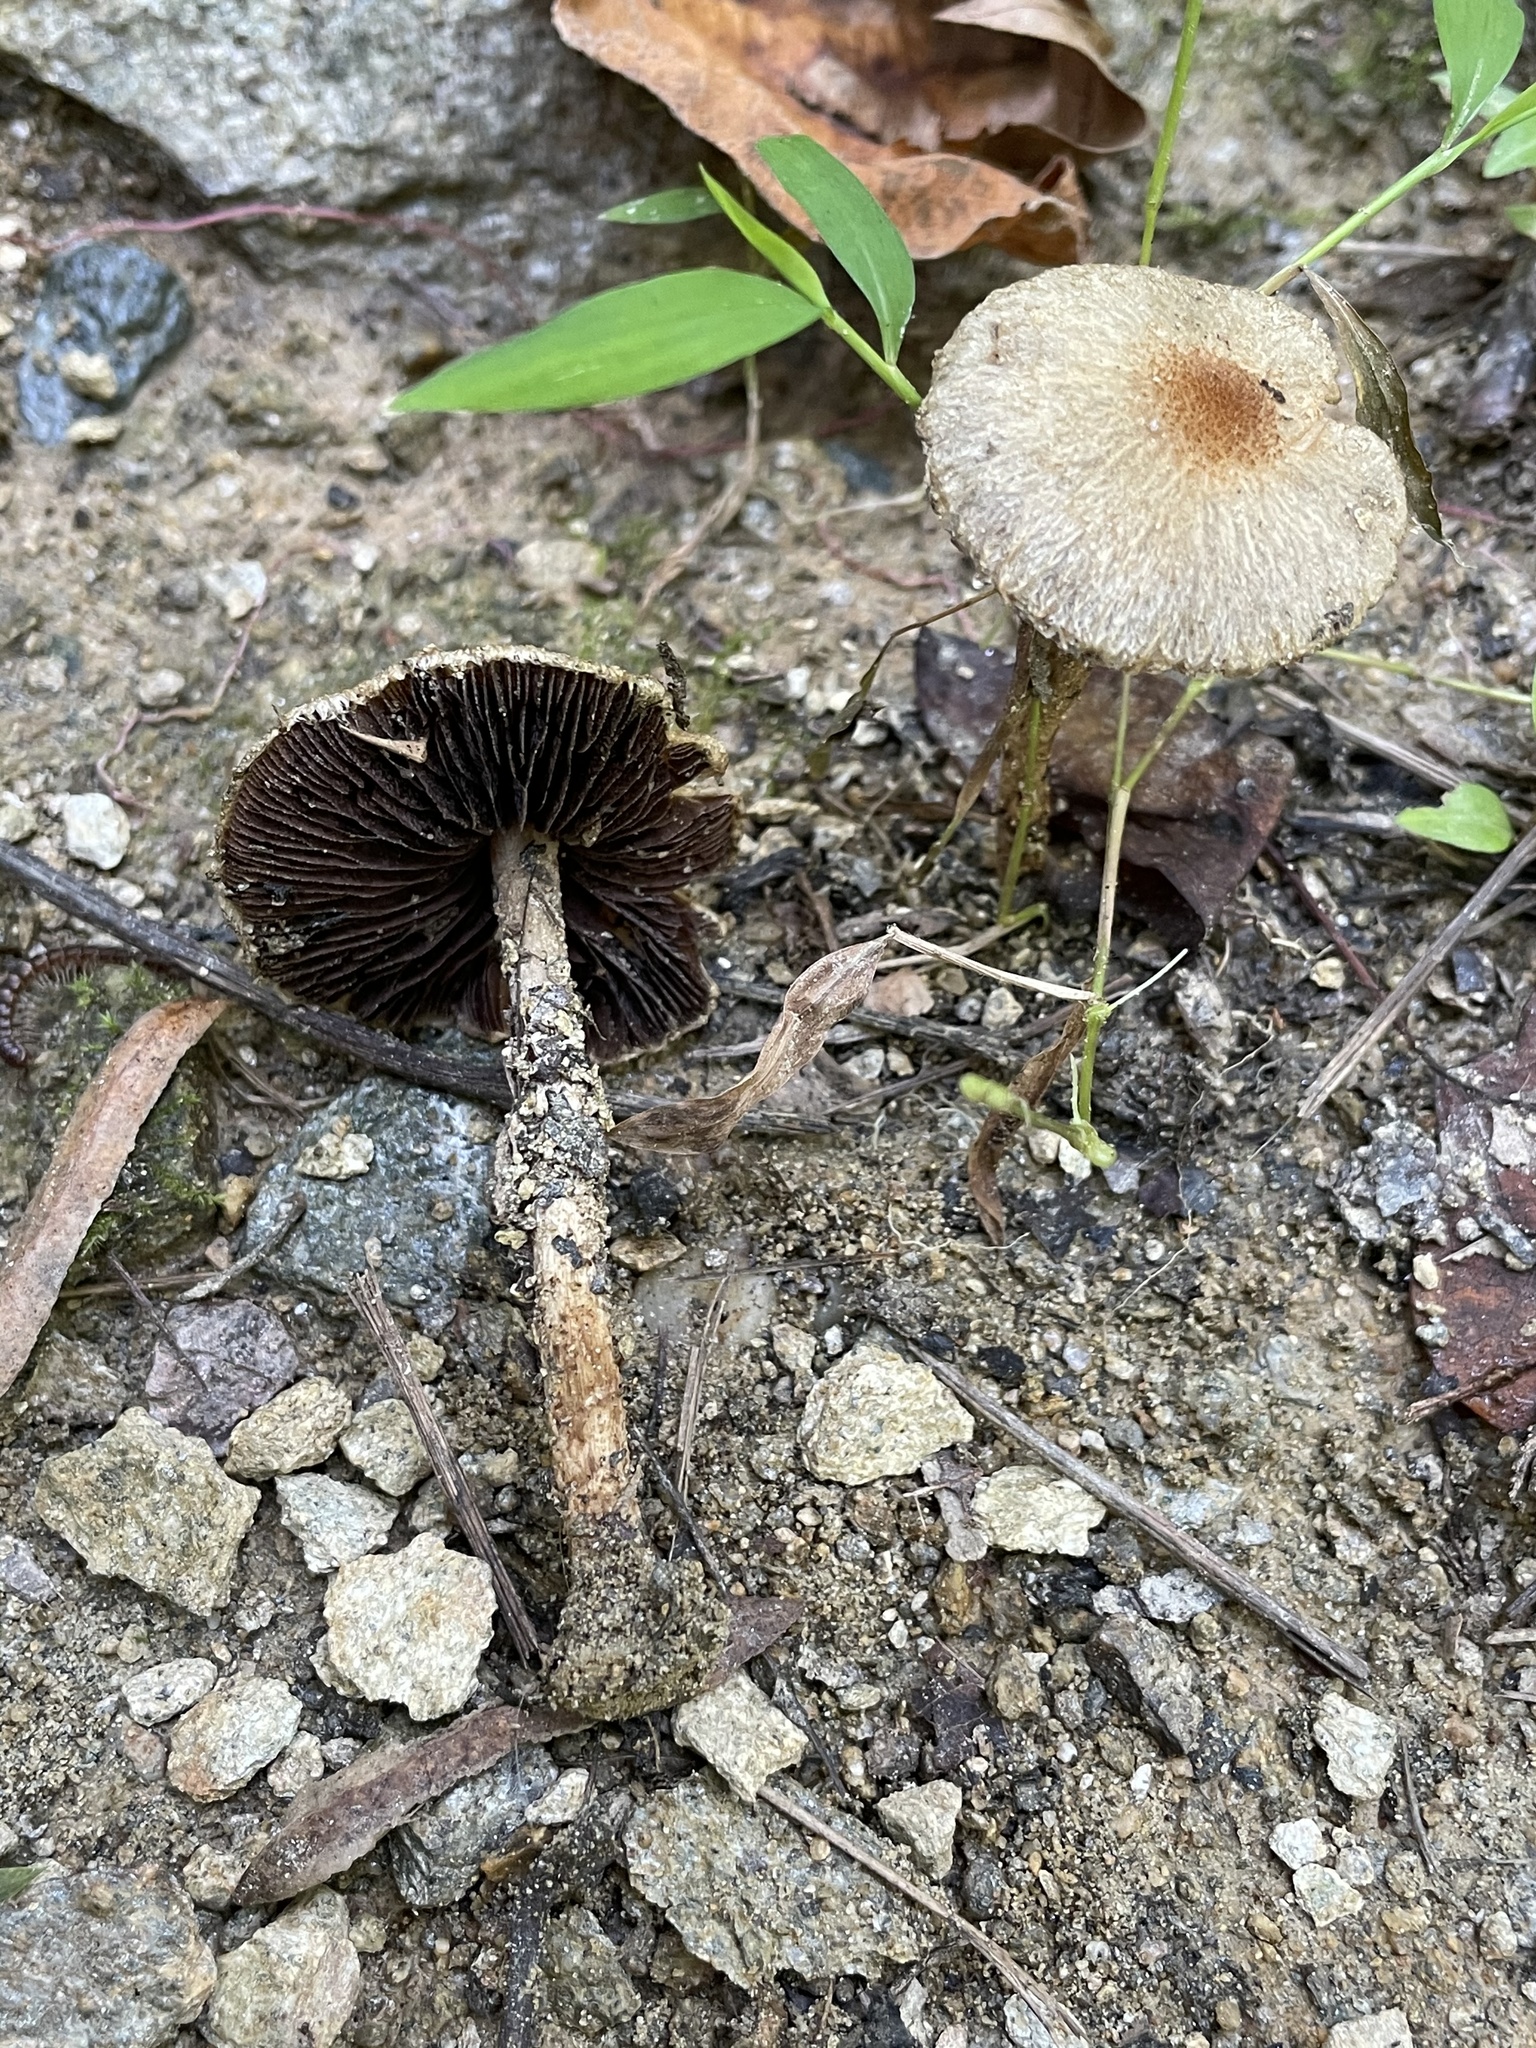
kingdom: Fungi
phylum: Basidiomycota
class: Agaricomycetes
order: Agaricales
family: Psathyrellaceae
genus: Lacrymaria
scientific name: Lacrymaria lacrymabunda
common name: Weeping widow
